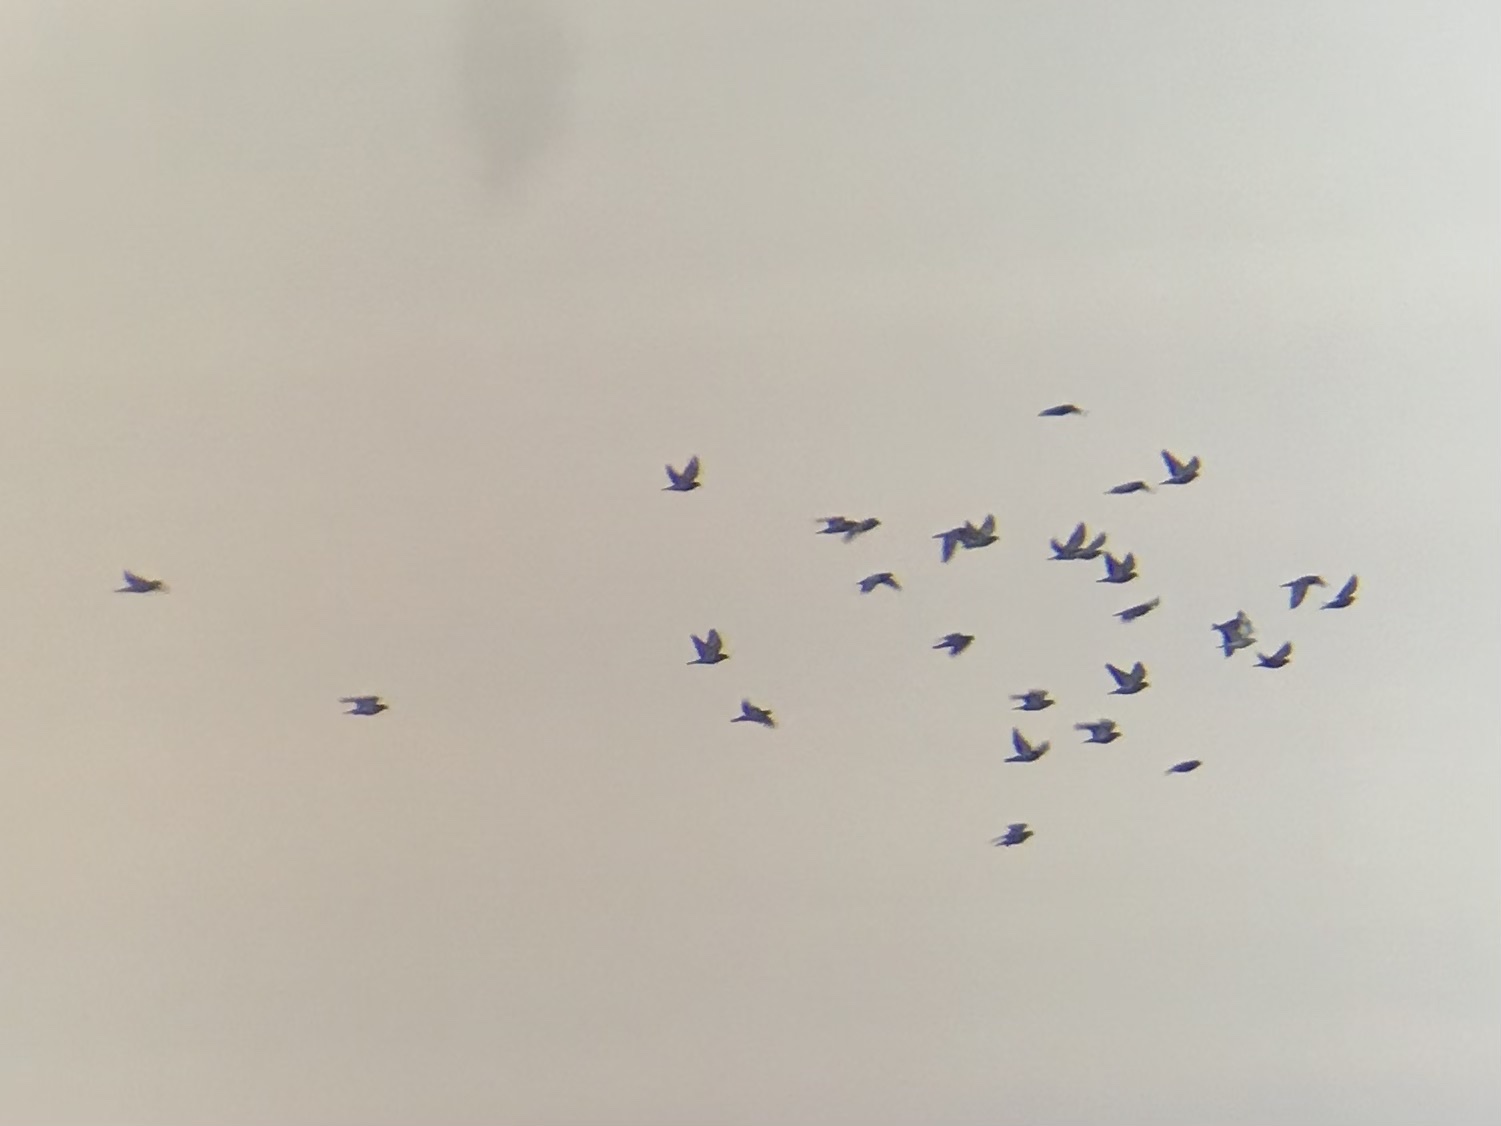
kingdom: Animalia
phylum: Chordata
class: Aves
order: Columbiformes
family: Columbidae
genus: Columba
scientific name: Columba livia
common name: Rock pigeon
